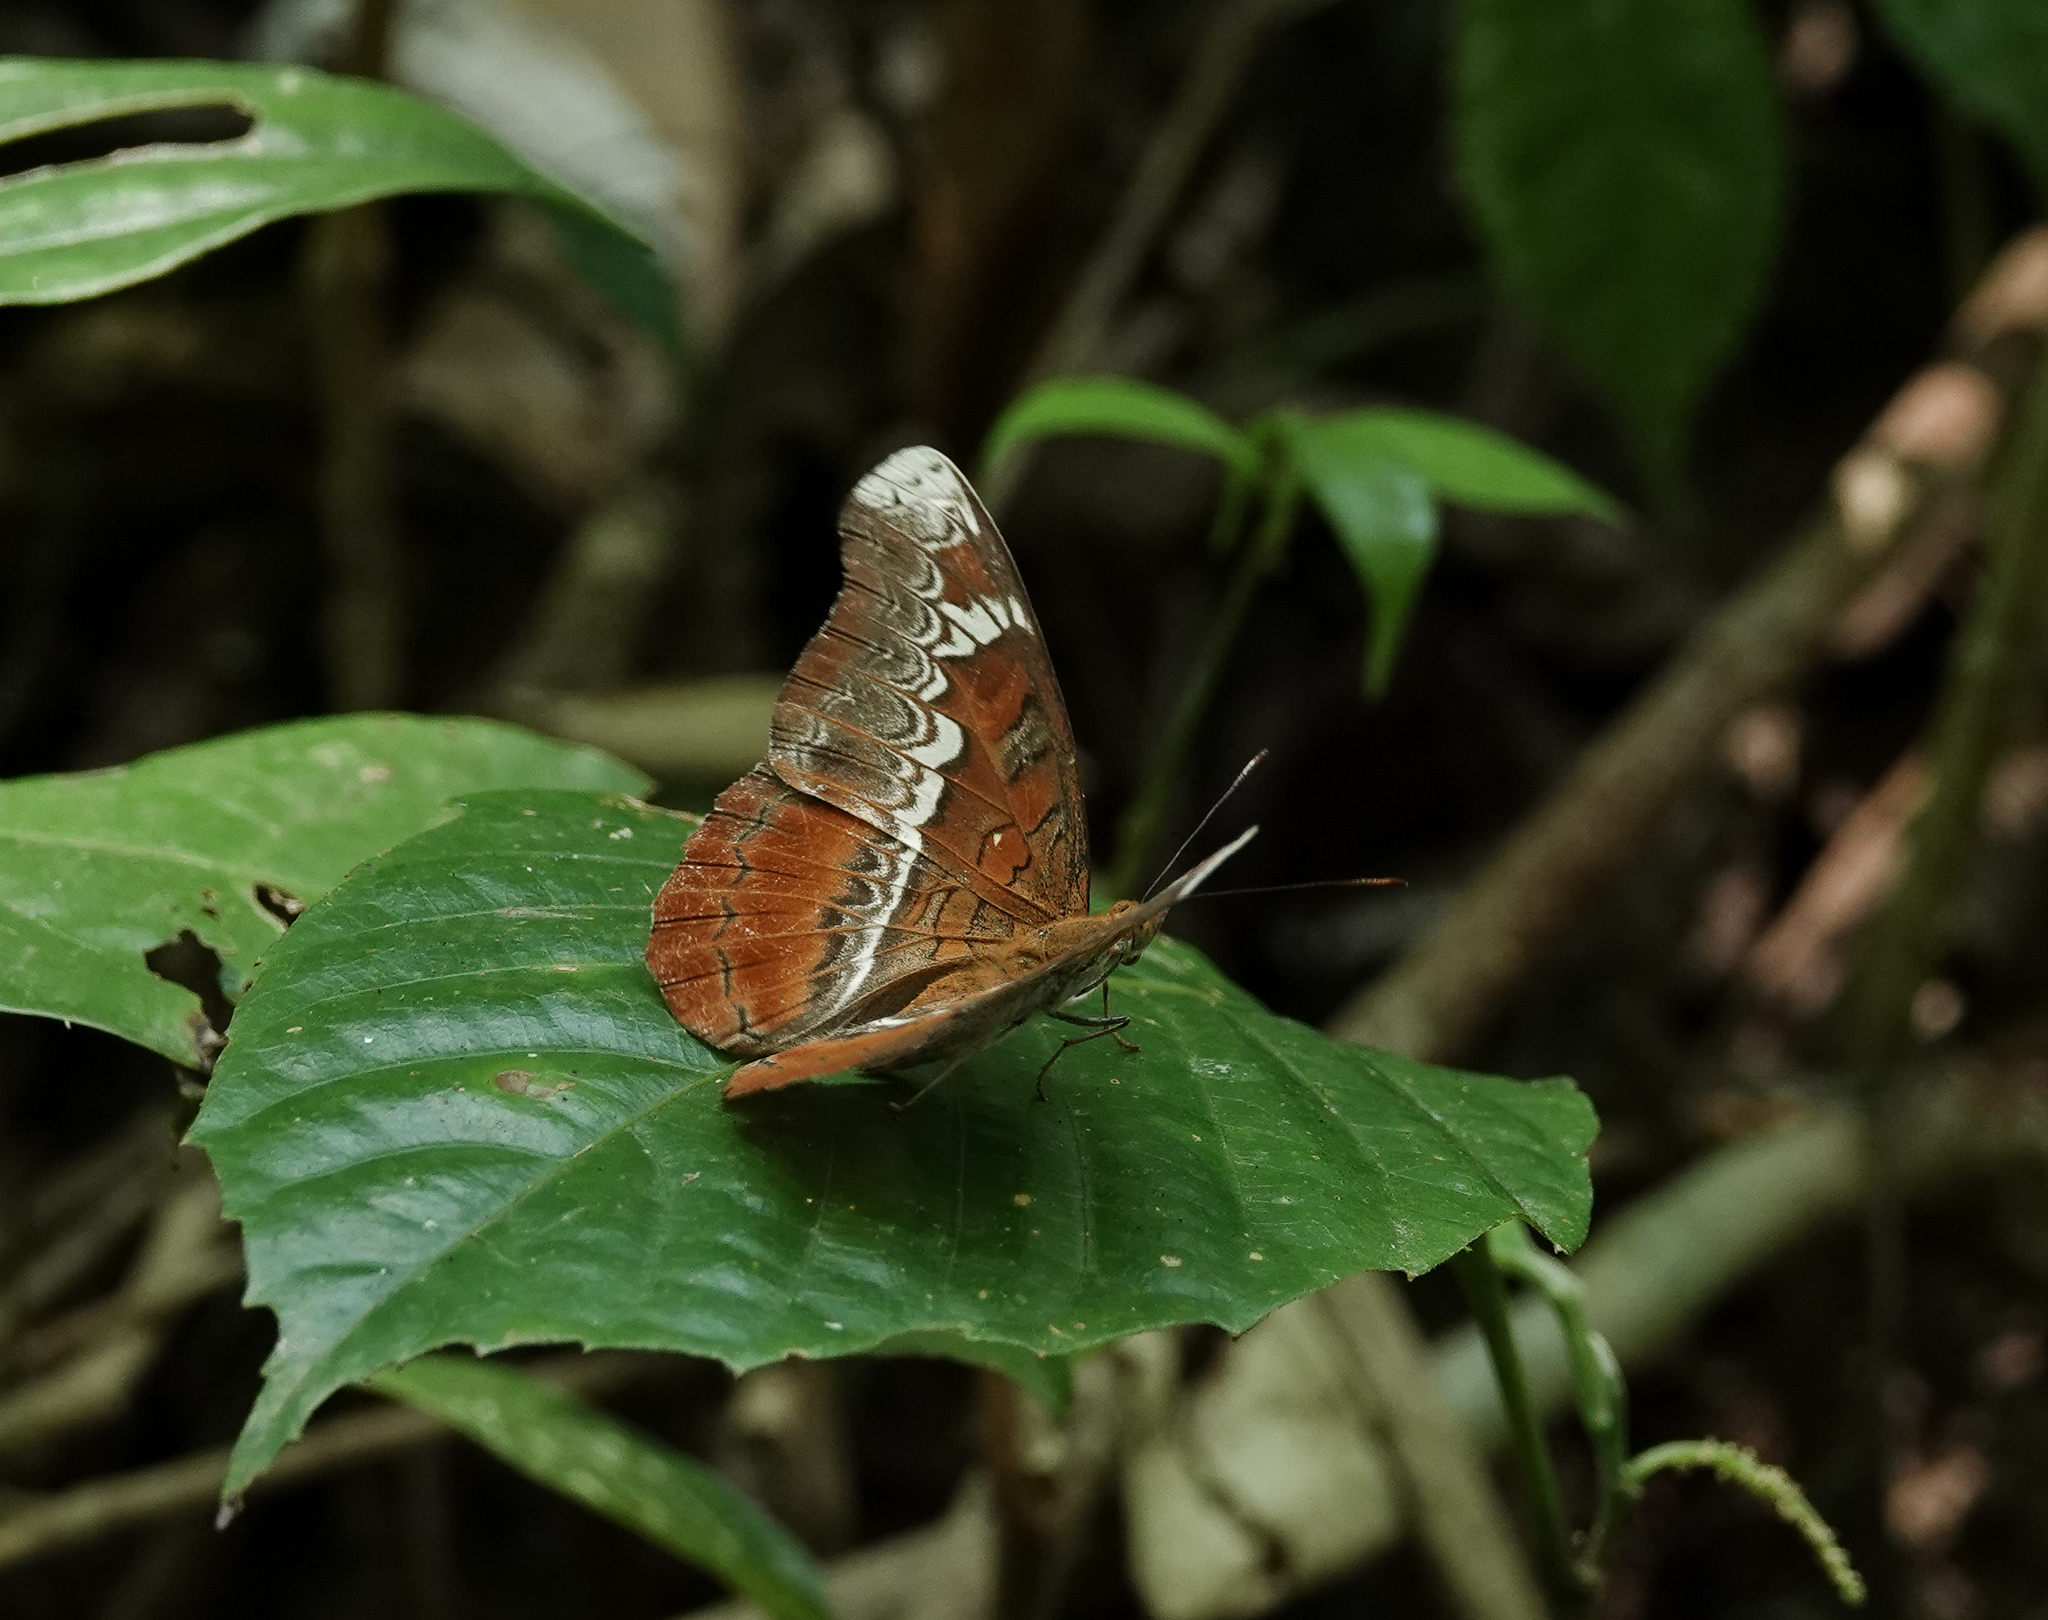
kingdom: Animalia
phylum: Arthropoda
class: Insecta
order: Lepidoptera
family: Nymphalidae
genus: Lebadea
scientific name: Lebadea martha
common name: Knight
